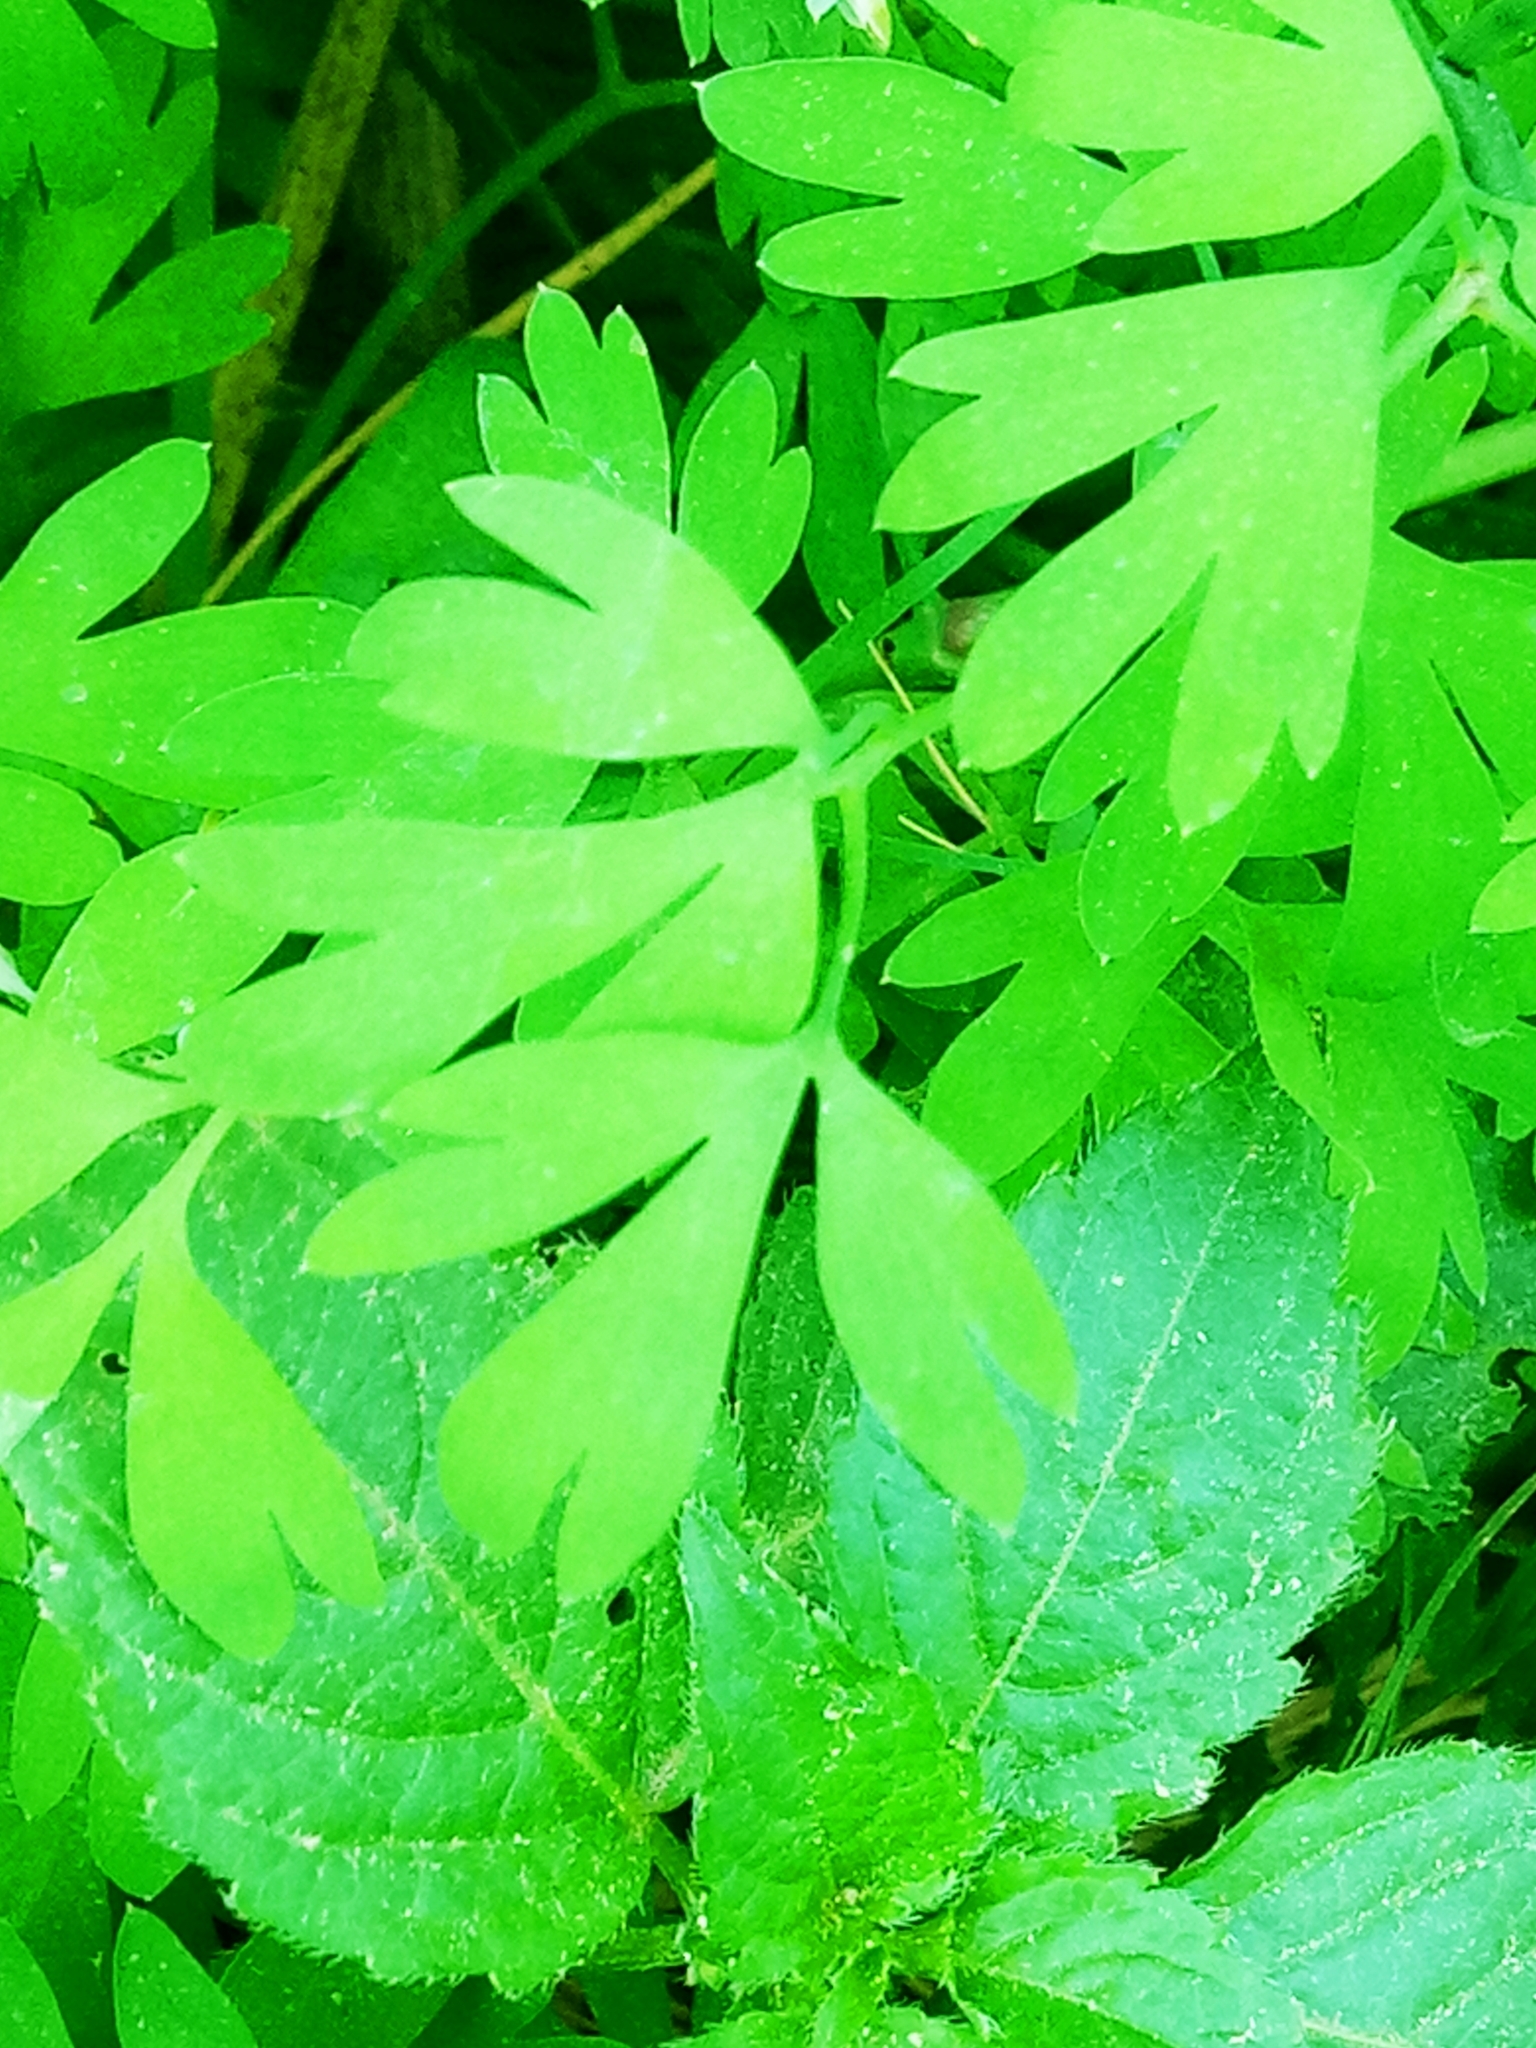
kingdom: Plantae
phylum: Tracheophyta
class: Magnoliopsida
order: Ranunculales
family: Papaveraceae
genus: Fumaria
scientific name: Fumaria capreolata
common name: White ramping-fumitory
